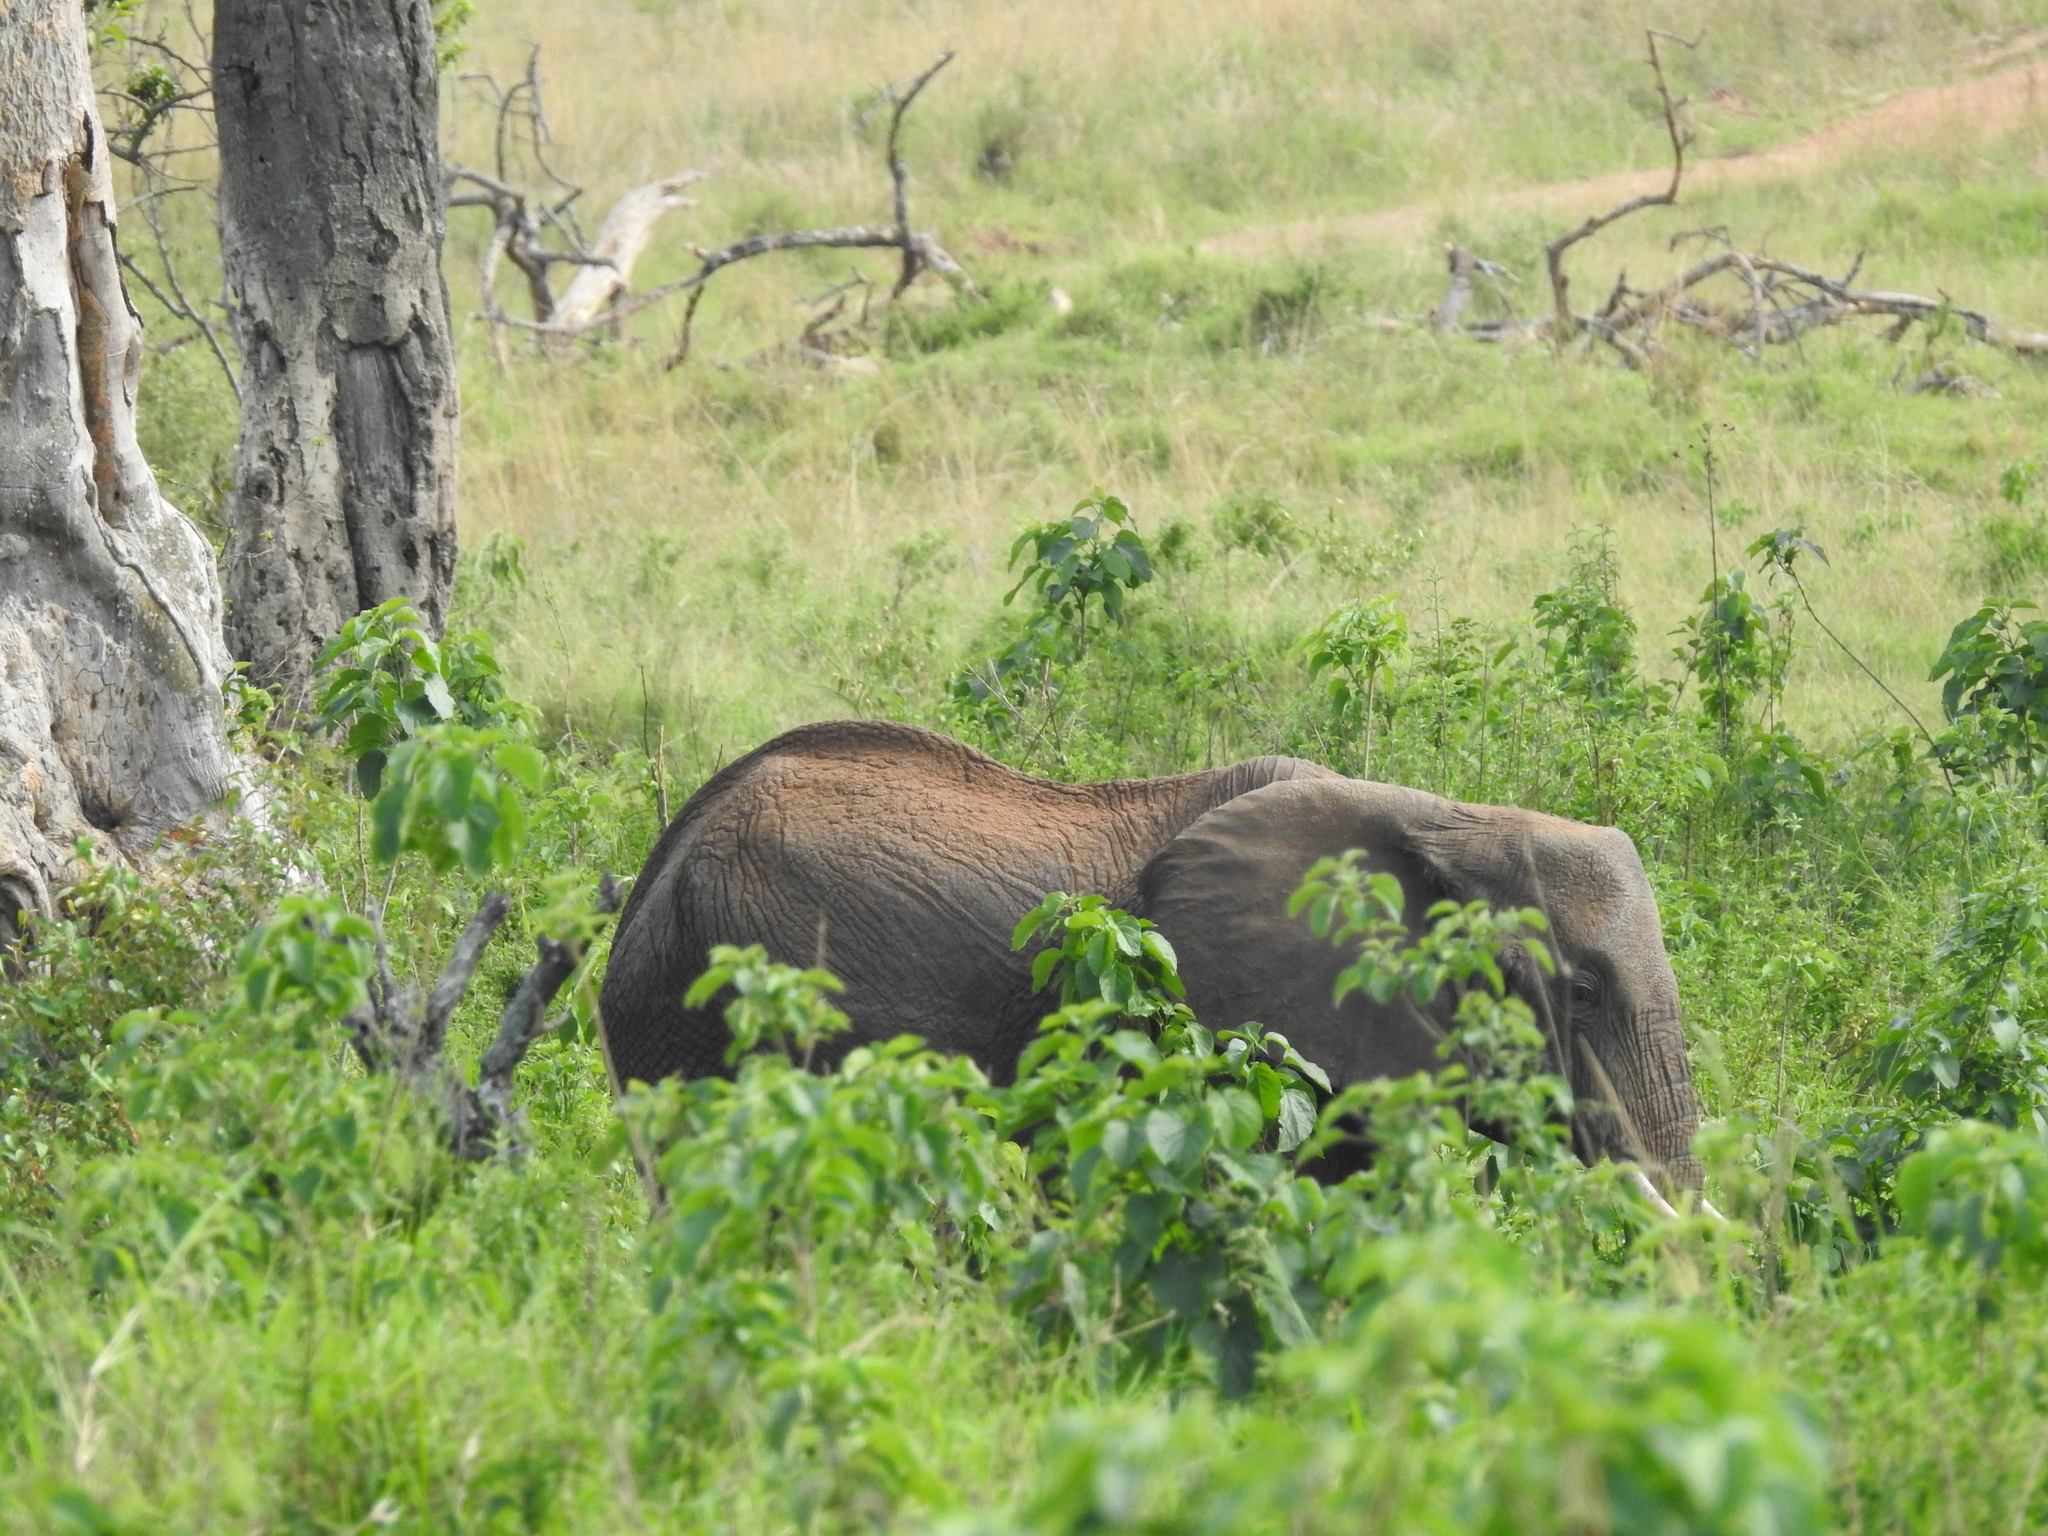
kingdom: Animalia
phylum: Chordata
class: Mammalia
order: Proboscidea
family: Elephantidae
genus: Loxodonta
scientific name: Loxodonta africana
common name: African elephant
